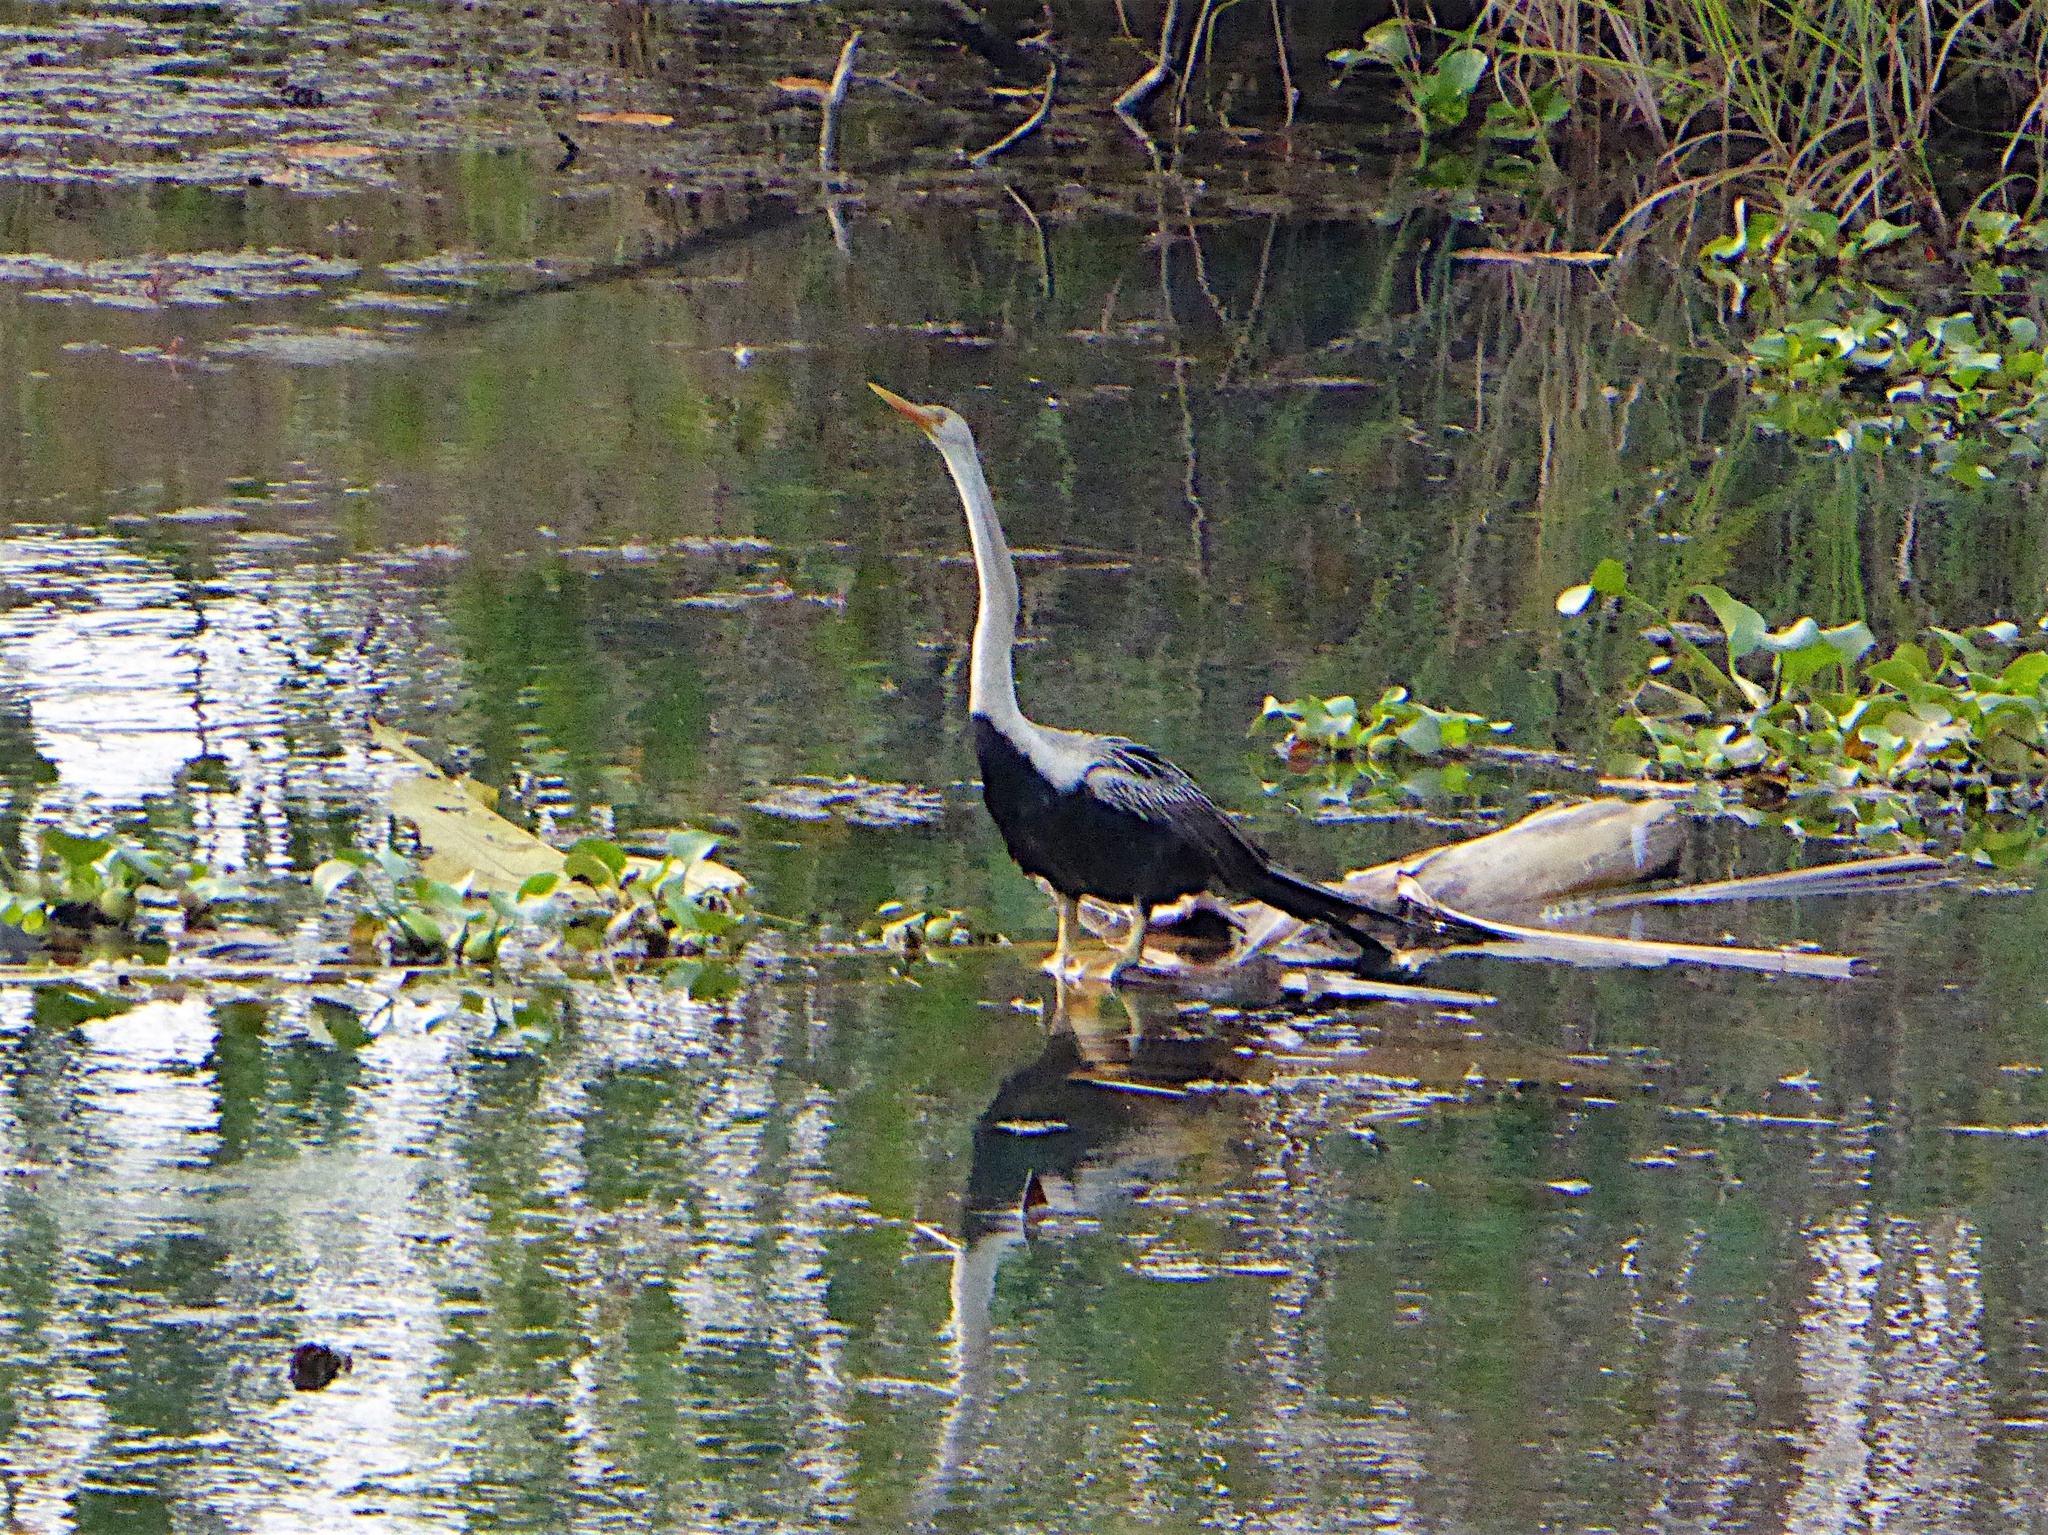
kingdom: Animalia
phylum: Chordata
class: Aves
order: Suliformes
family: Anhingidae
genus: Anhinga
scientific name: Anhinga melanogaster
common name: Oriental darter
